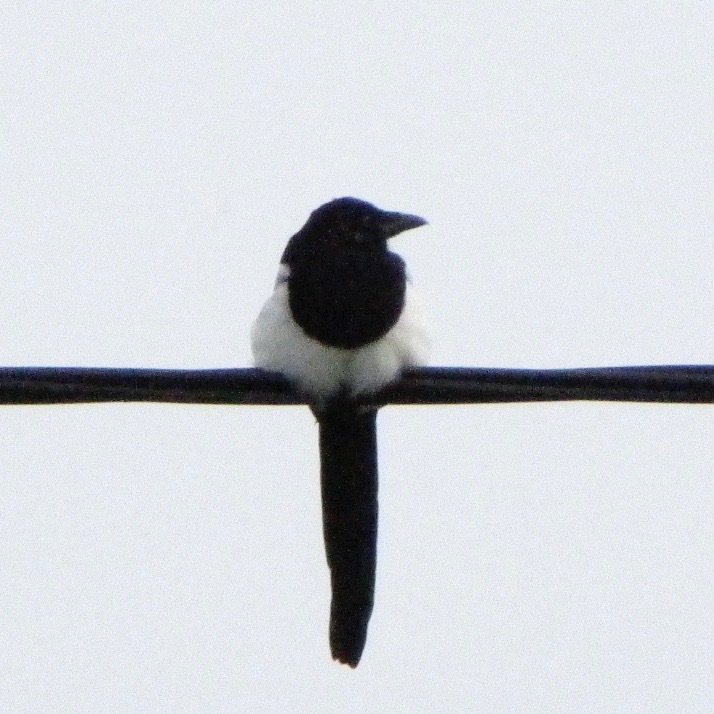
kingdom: Animalia
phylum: Chordata
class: Aves
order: Passeriformes
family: Corvidae
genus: Pica
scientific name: Pica pica
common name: Eurasian magpie
